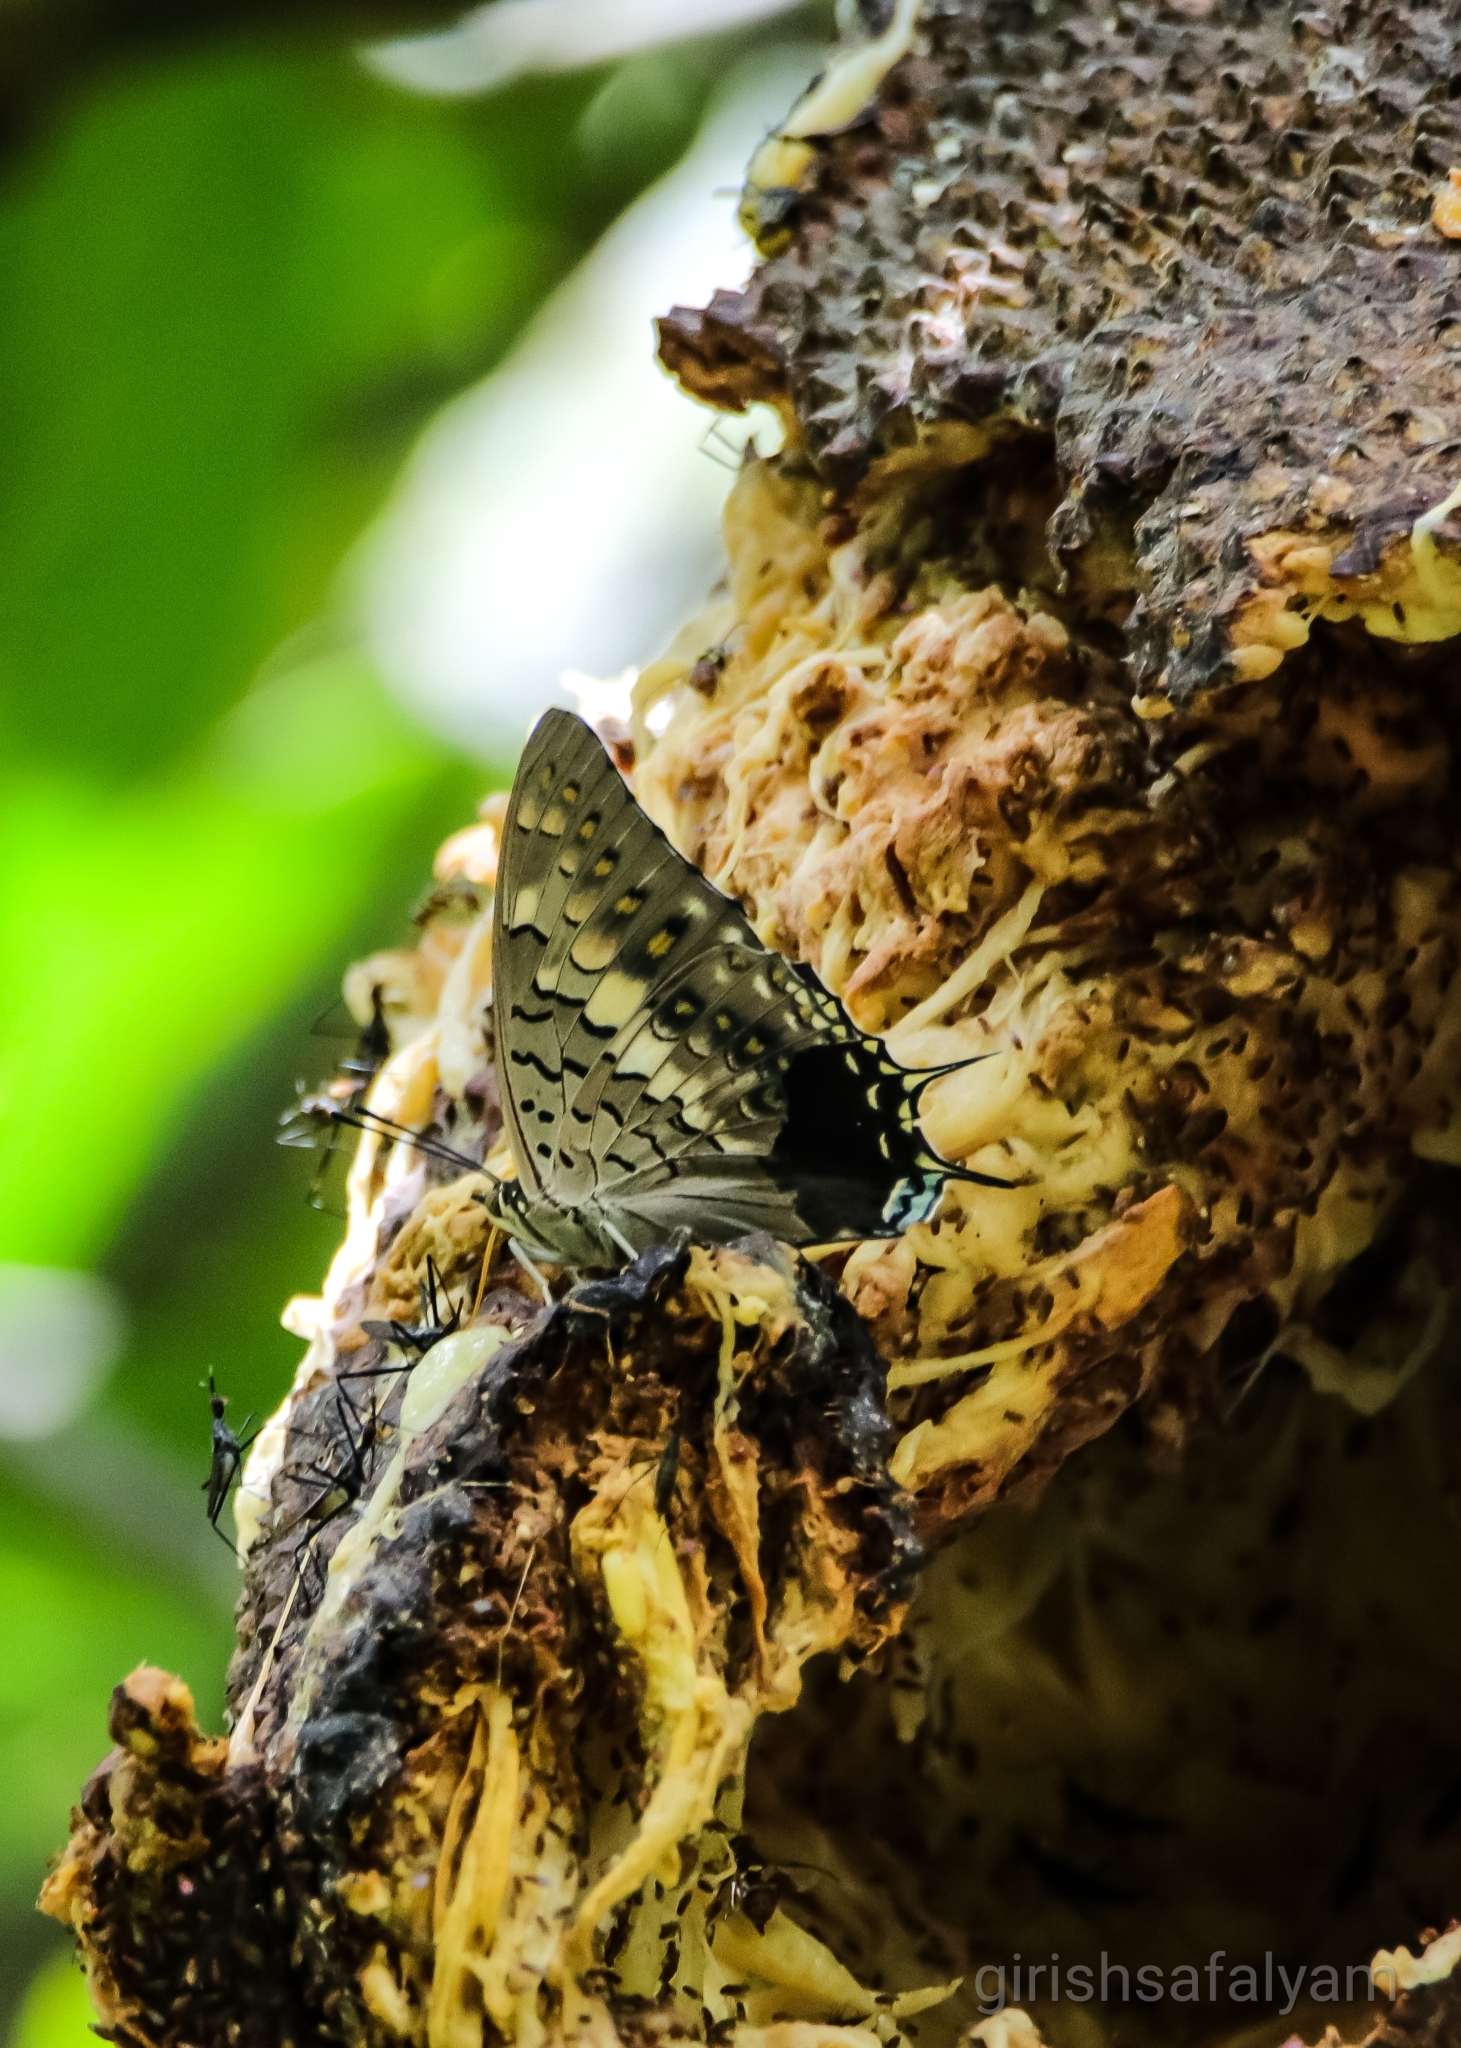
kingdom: Animalia
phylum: Arthropoda
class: Insecta
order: Lepidoptera
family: Nymphalidae
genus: Charaxes
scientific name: Charaxes solon
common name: Black rajah
